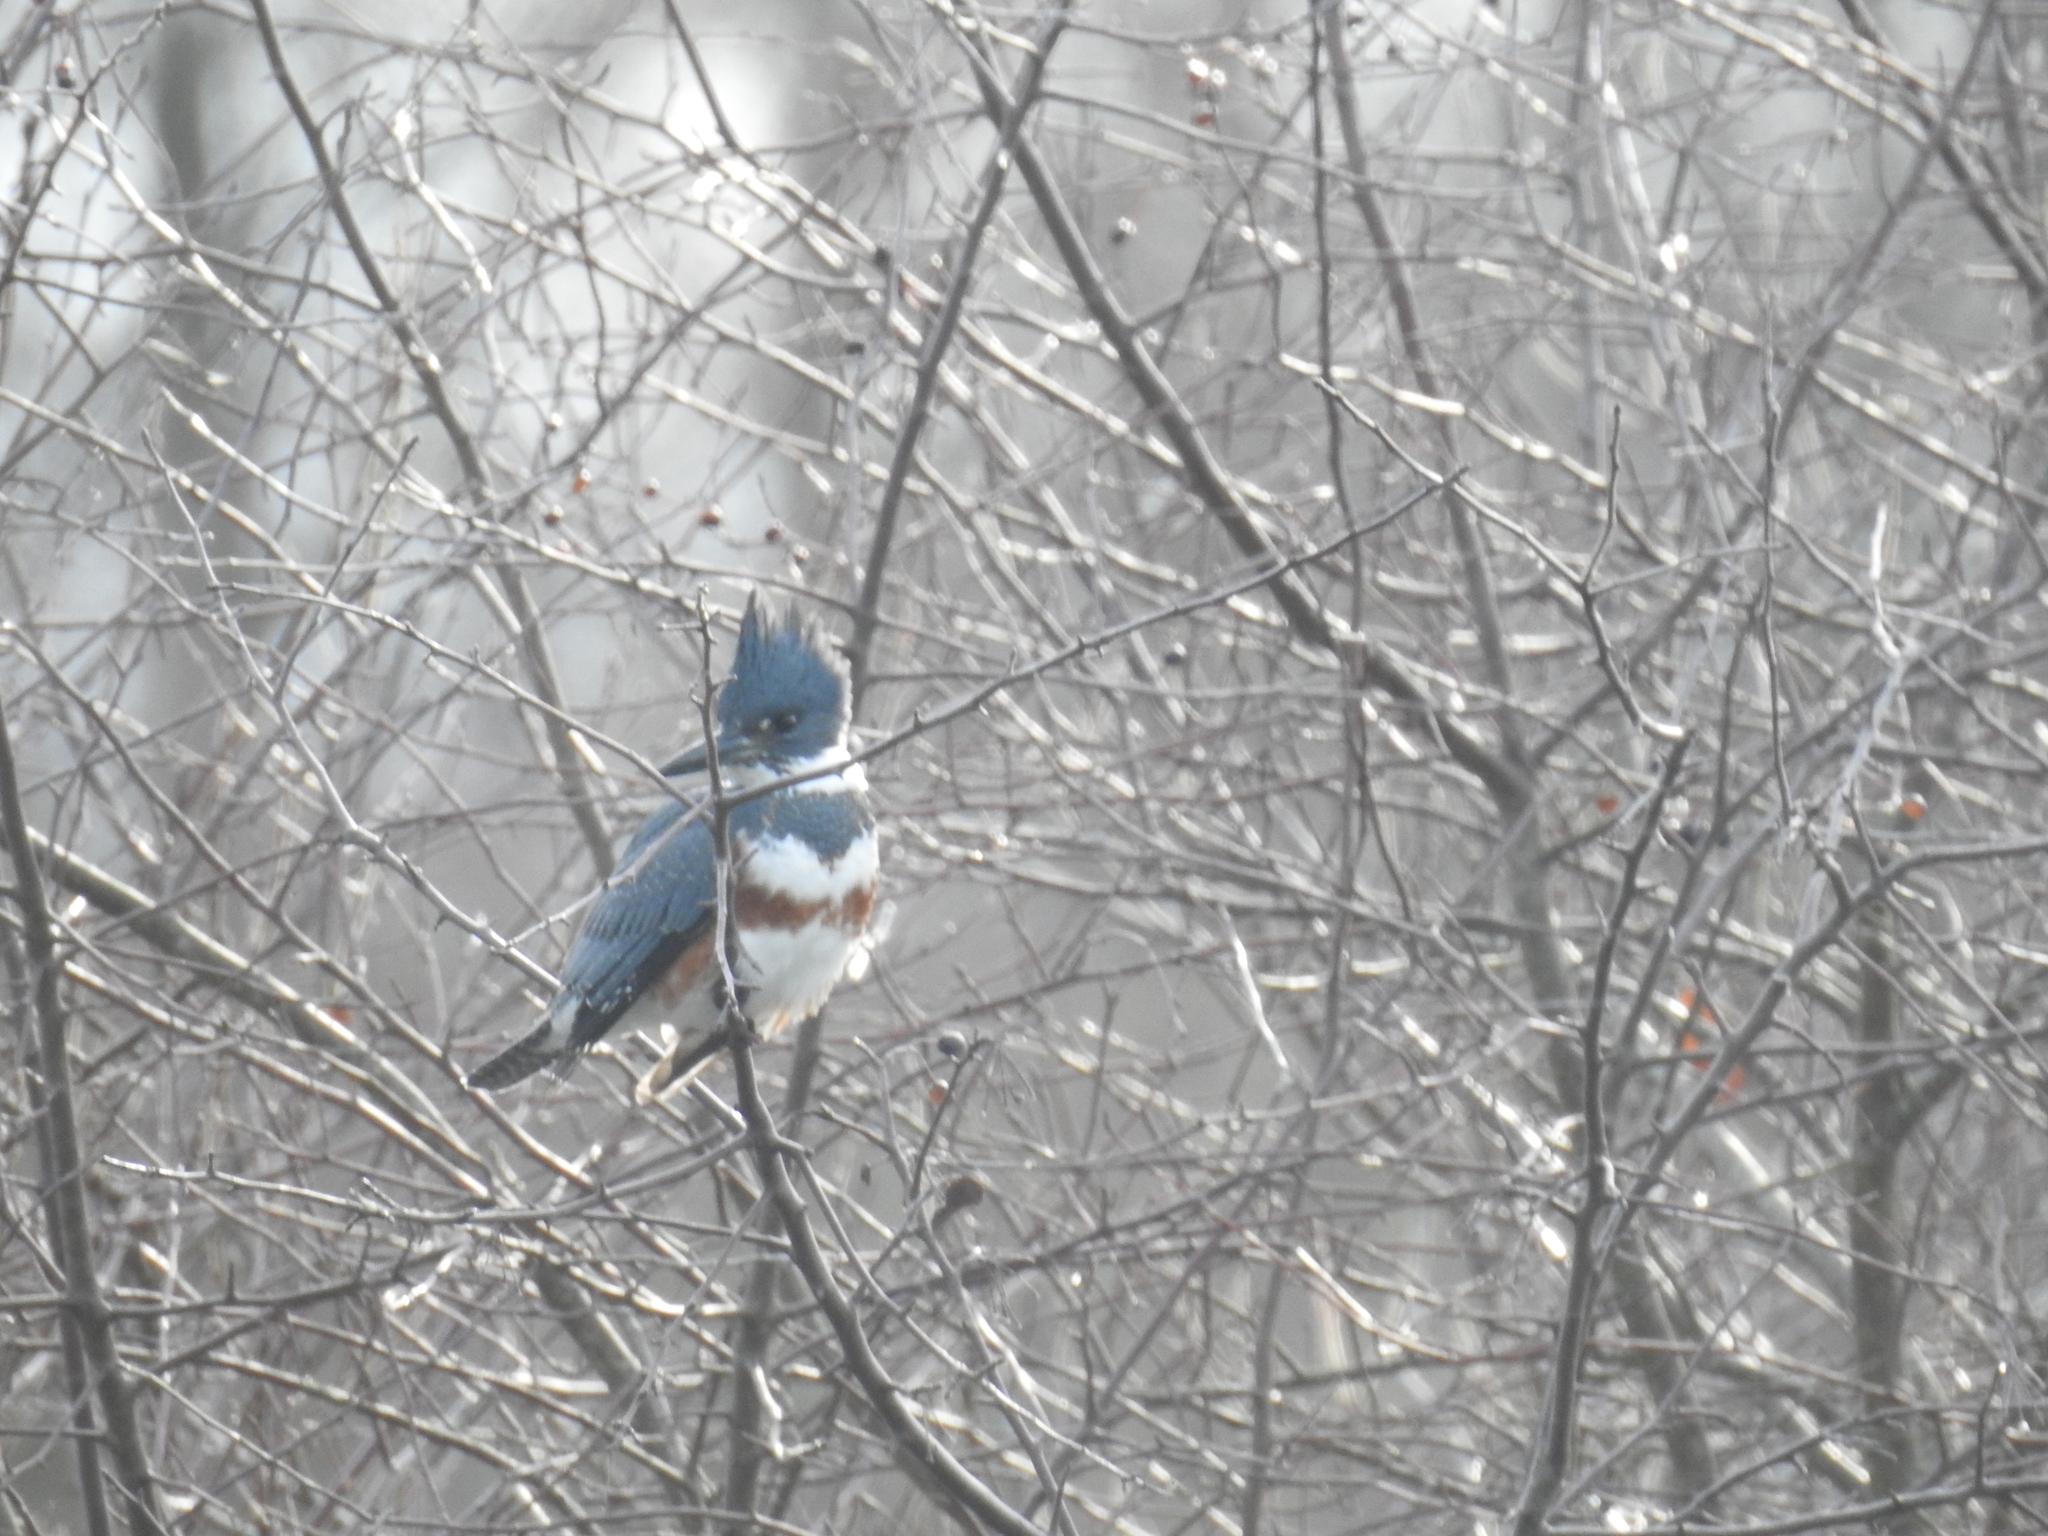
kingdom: Animalia
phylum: Chordata
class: Aves
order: Coraciiformes
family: Alcedinidae
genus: Megaceryle
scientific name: Megaceryle alcyon
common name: Belted kingfisher
